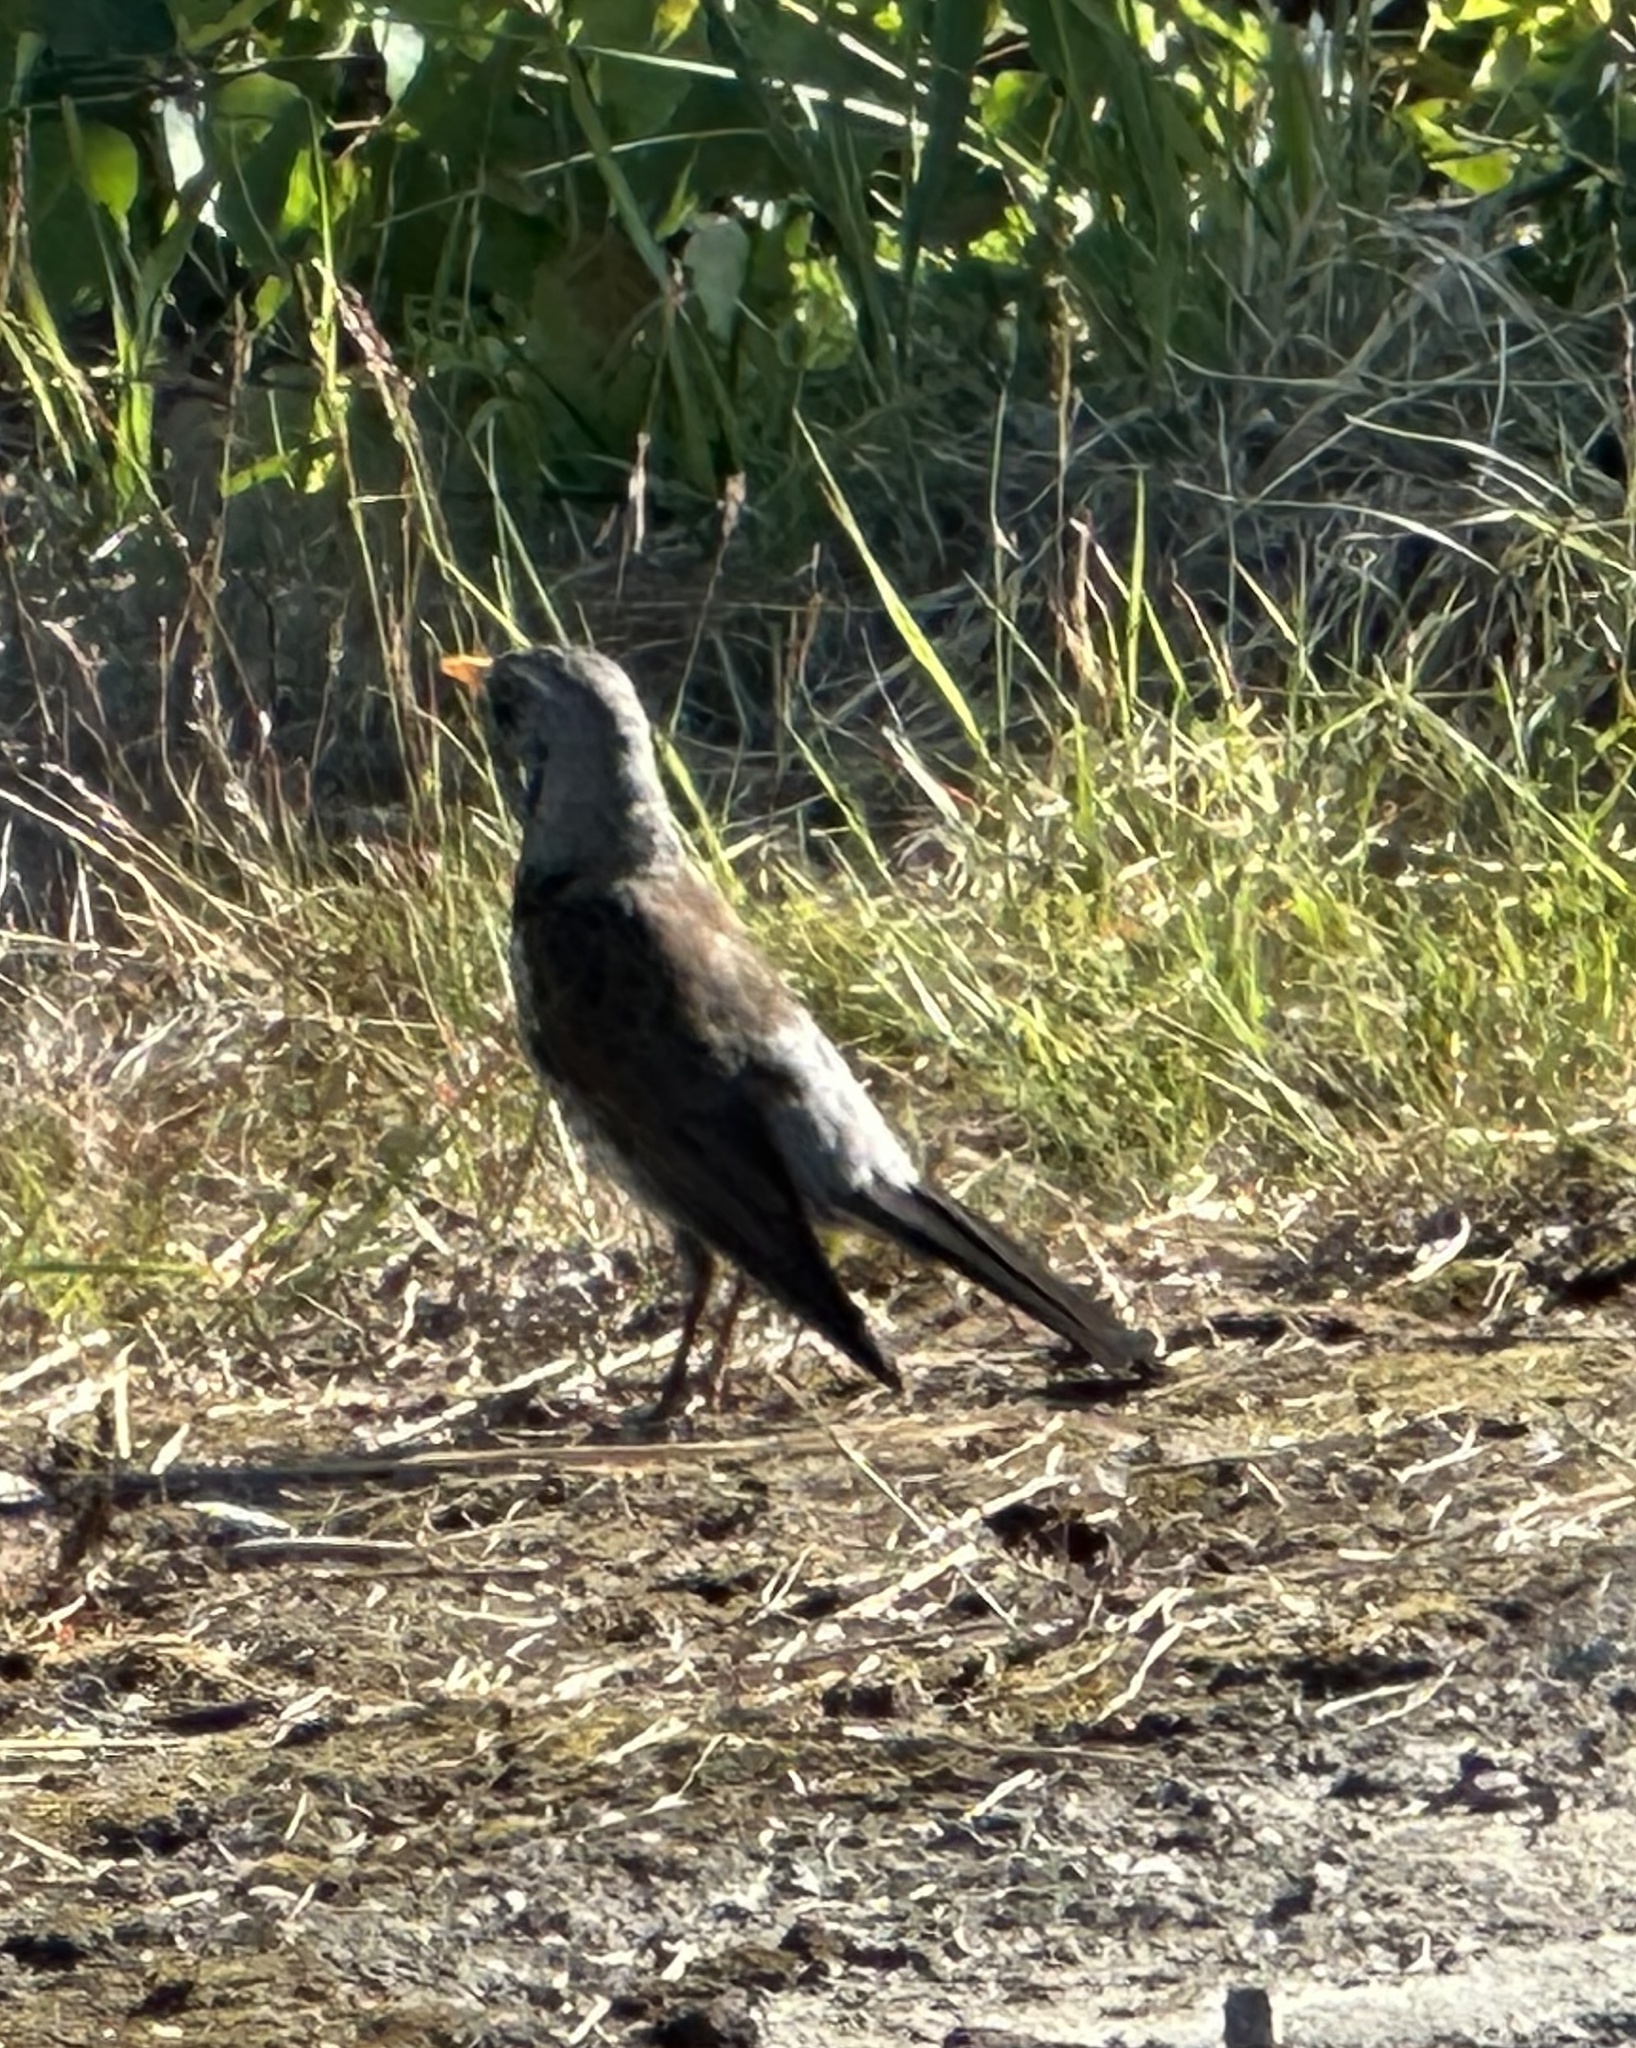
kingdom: Animalia
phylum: Chordata
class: Aves
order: Passeriformes
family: Turdidae
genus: Turdus
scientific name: Turdus pilaris
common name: Fieldfare
